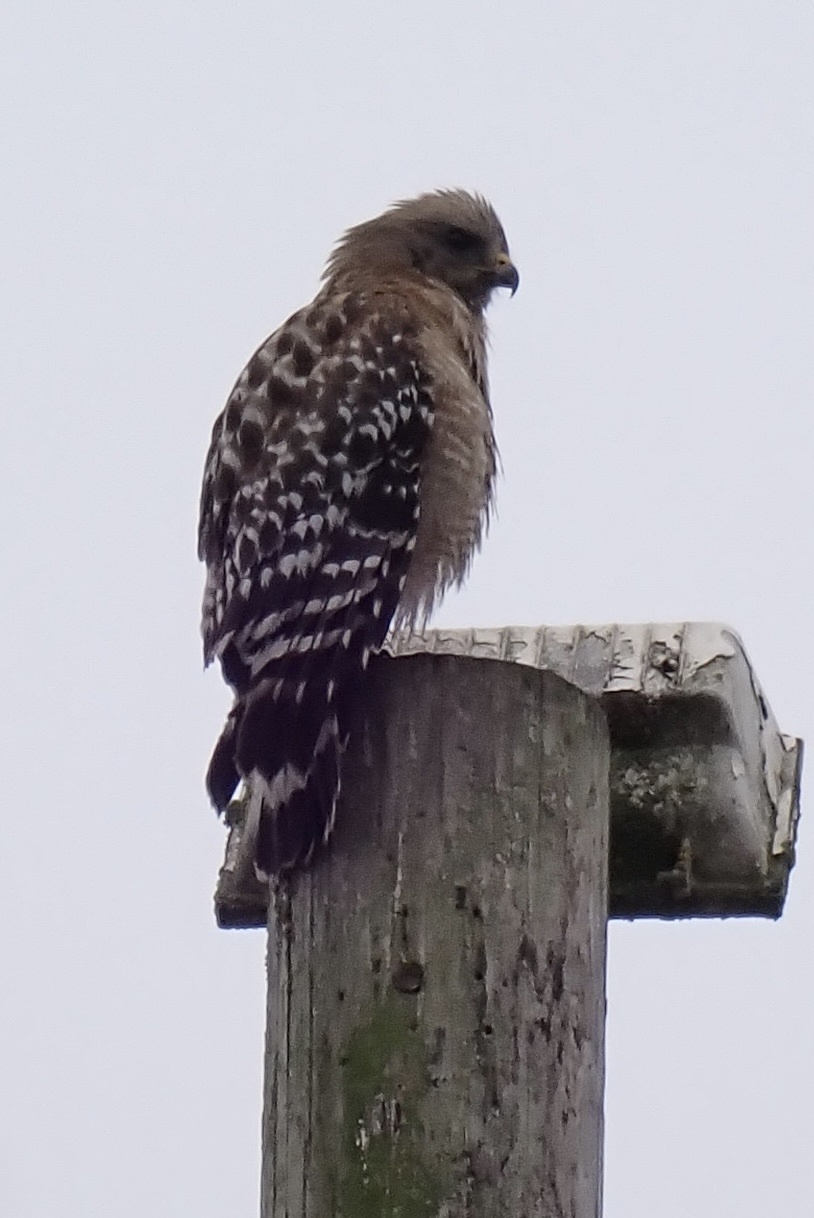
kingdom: Animalia
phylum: Chordata
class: Aves
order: Accipitriformes
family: Accipitridae
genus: Buteo
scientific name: Buteo lineatus
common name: Red-shouldered hawk
